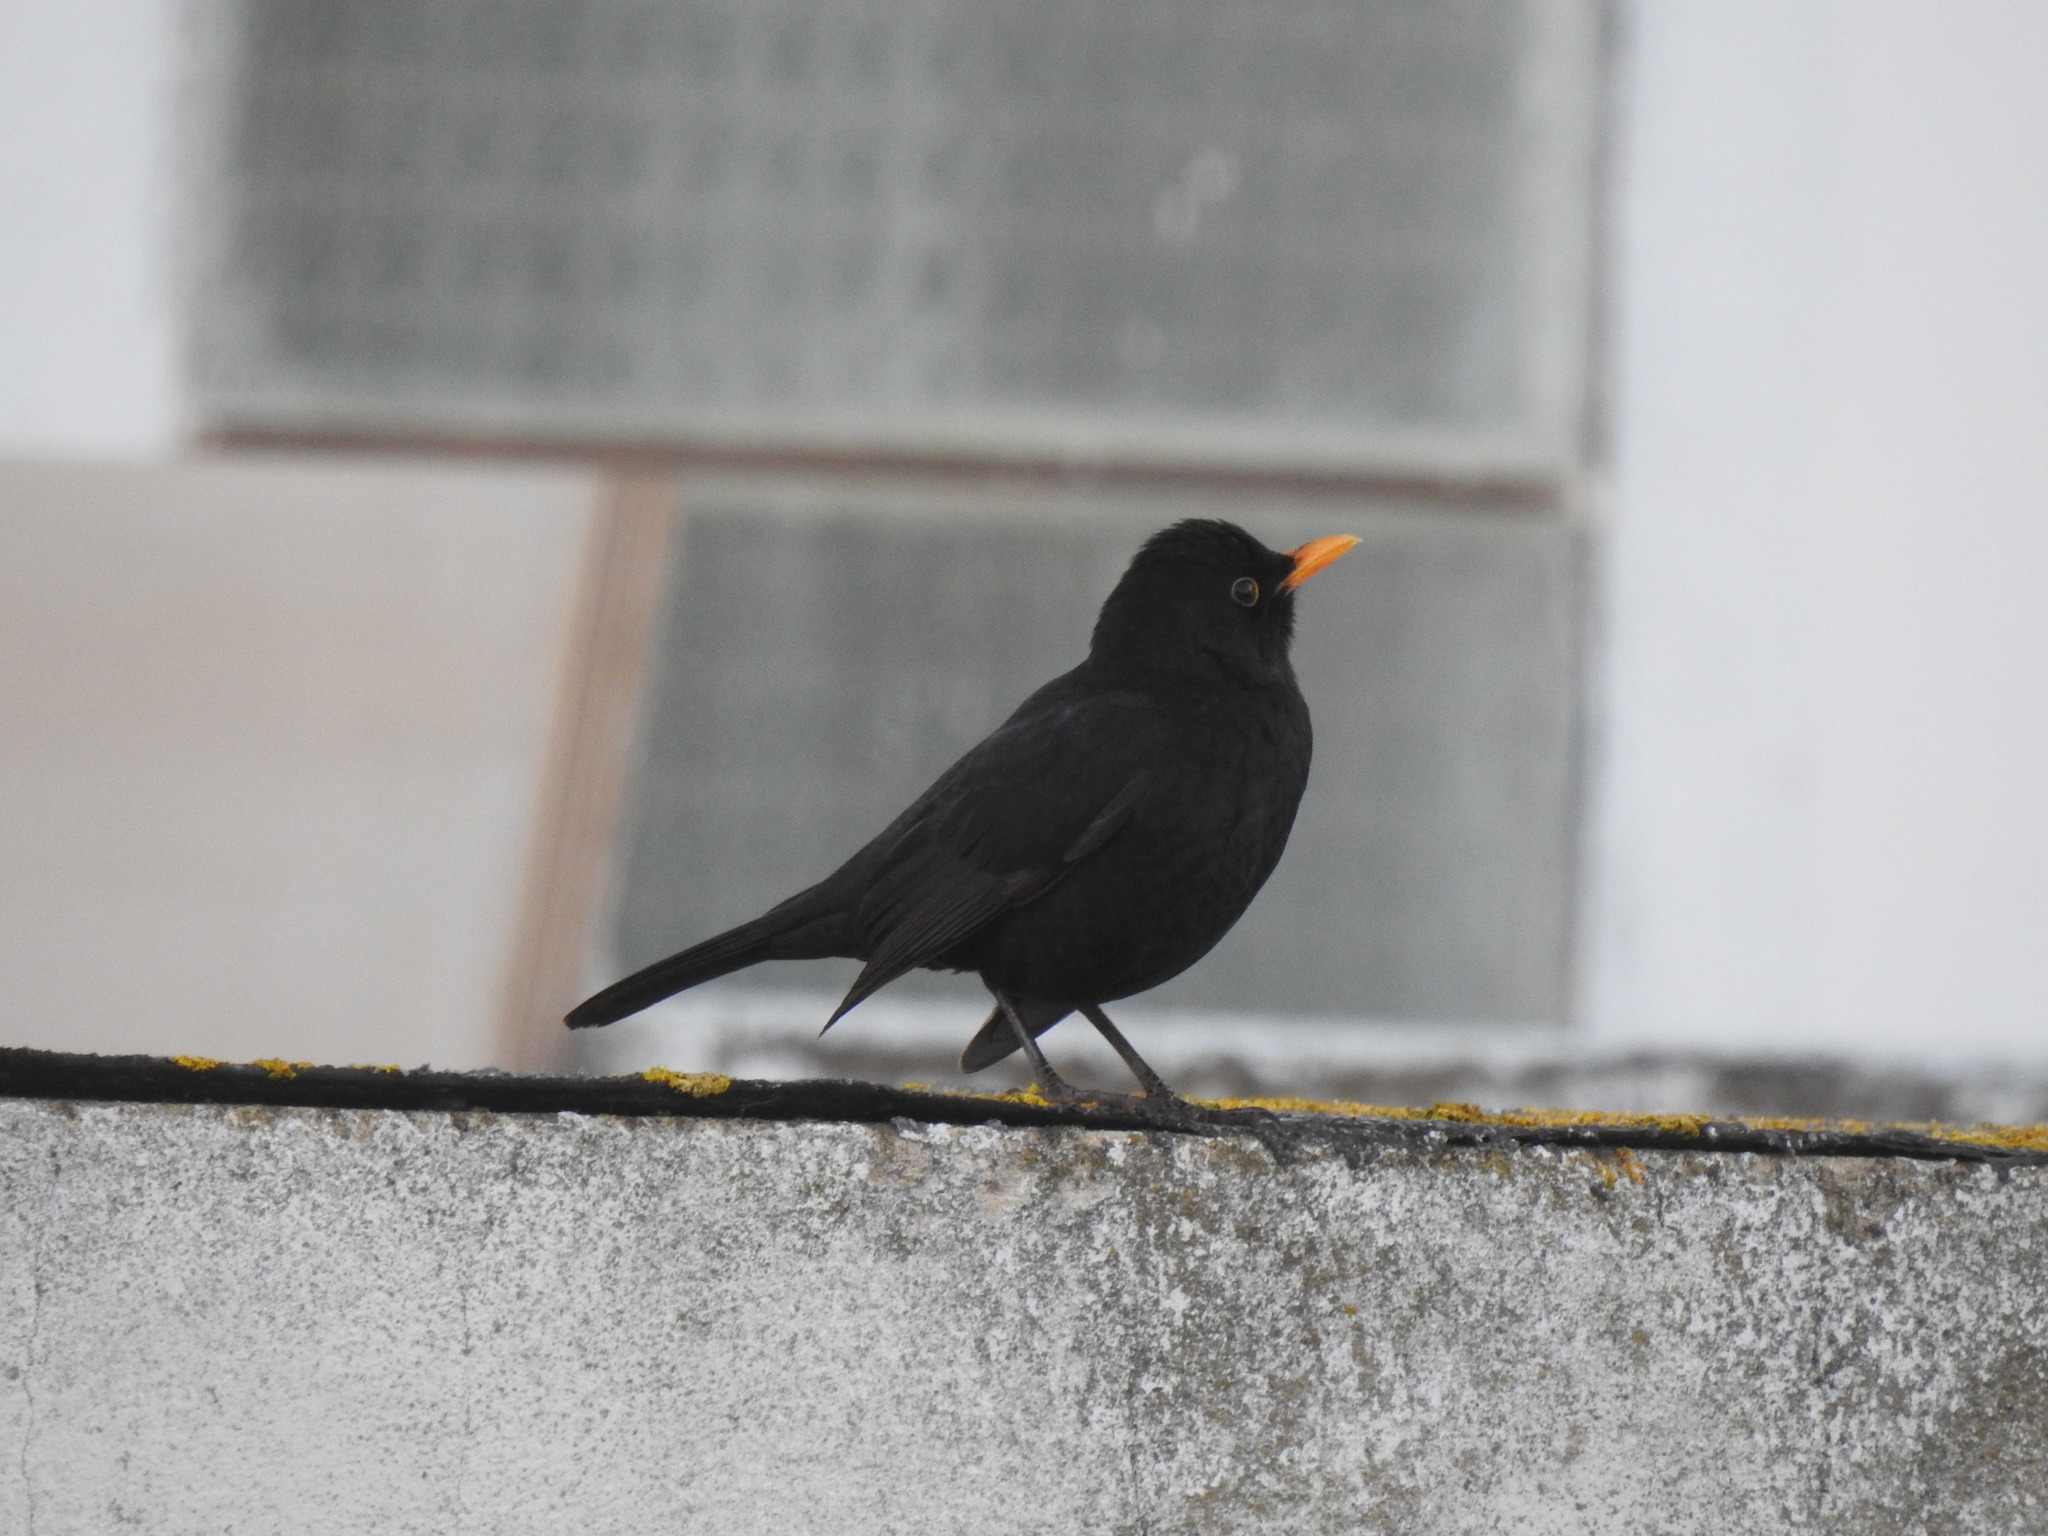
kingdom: Animalia
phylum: Chordata
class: Aves
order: Passeriformes
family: Turdidae
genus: Turdus
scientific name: Turdus merula
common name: Common blackbird
